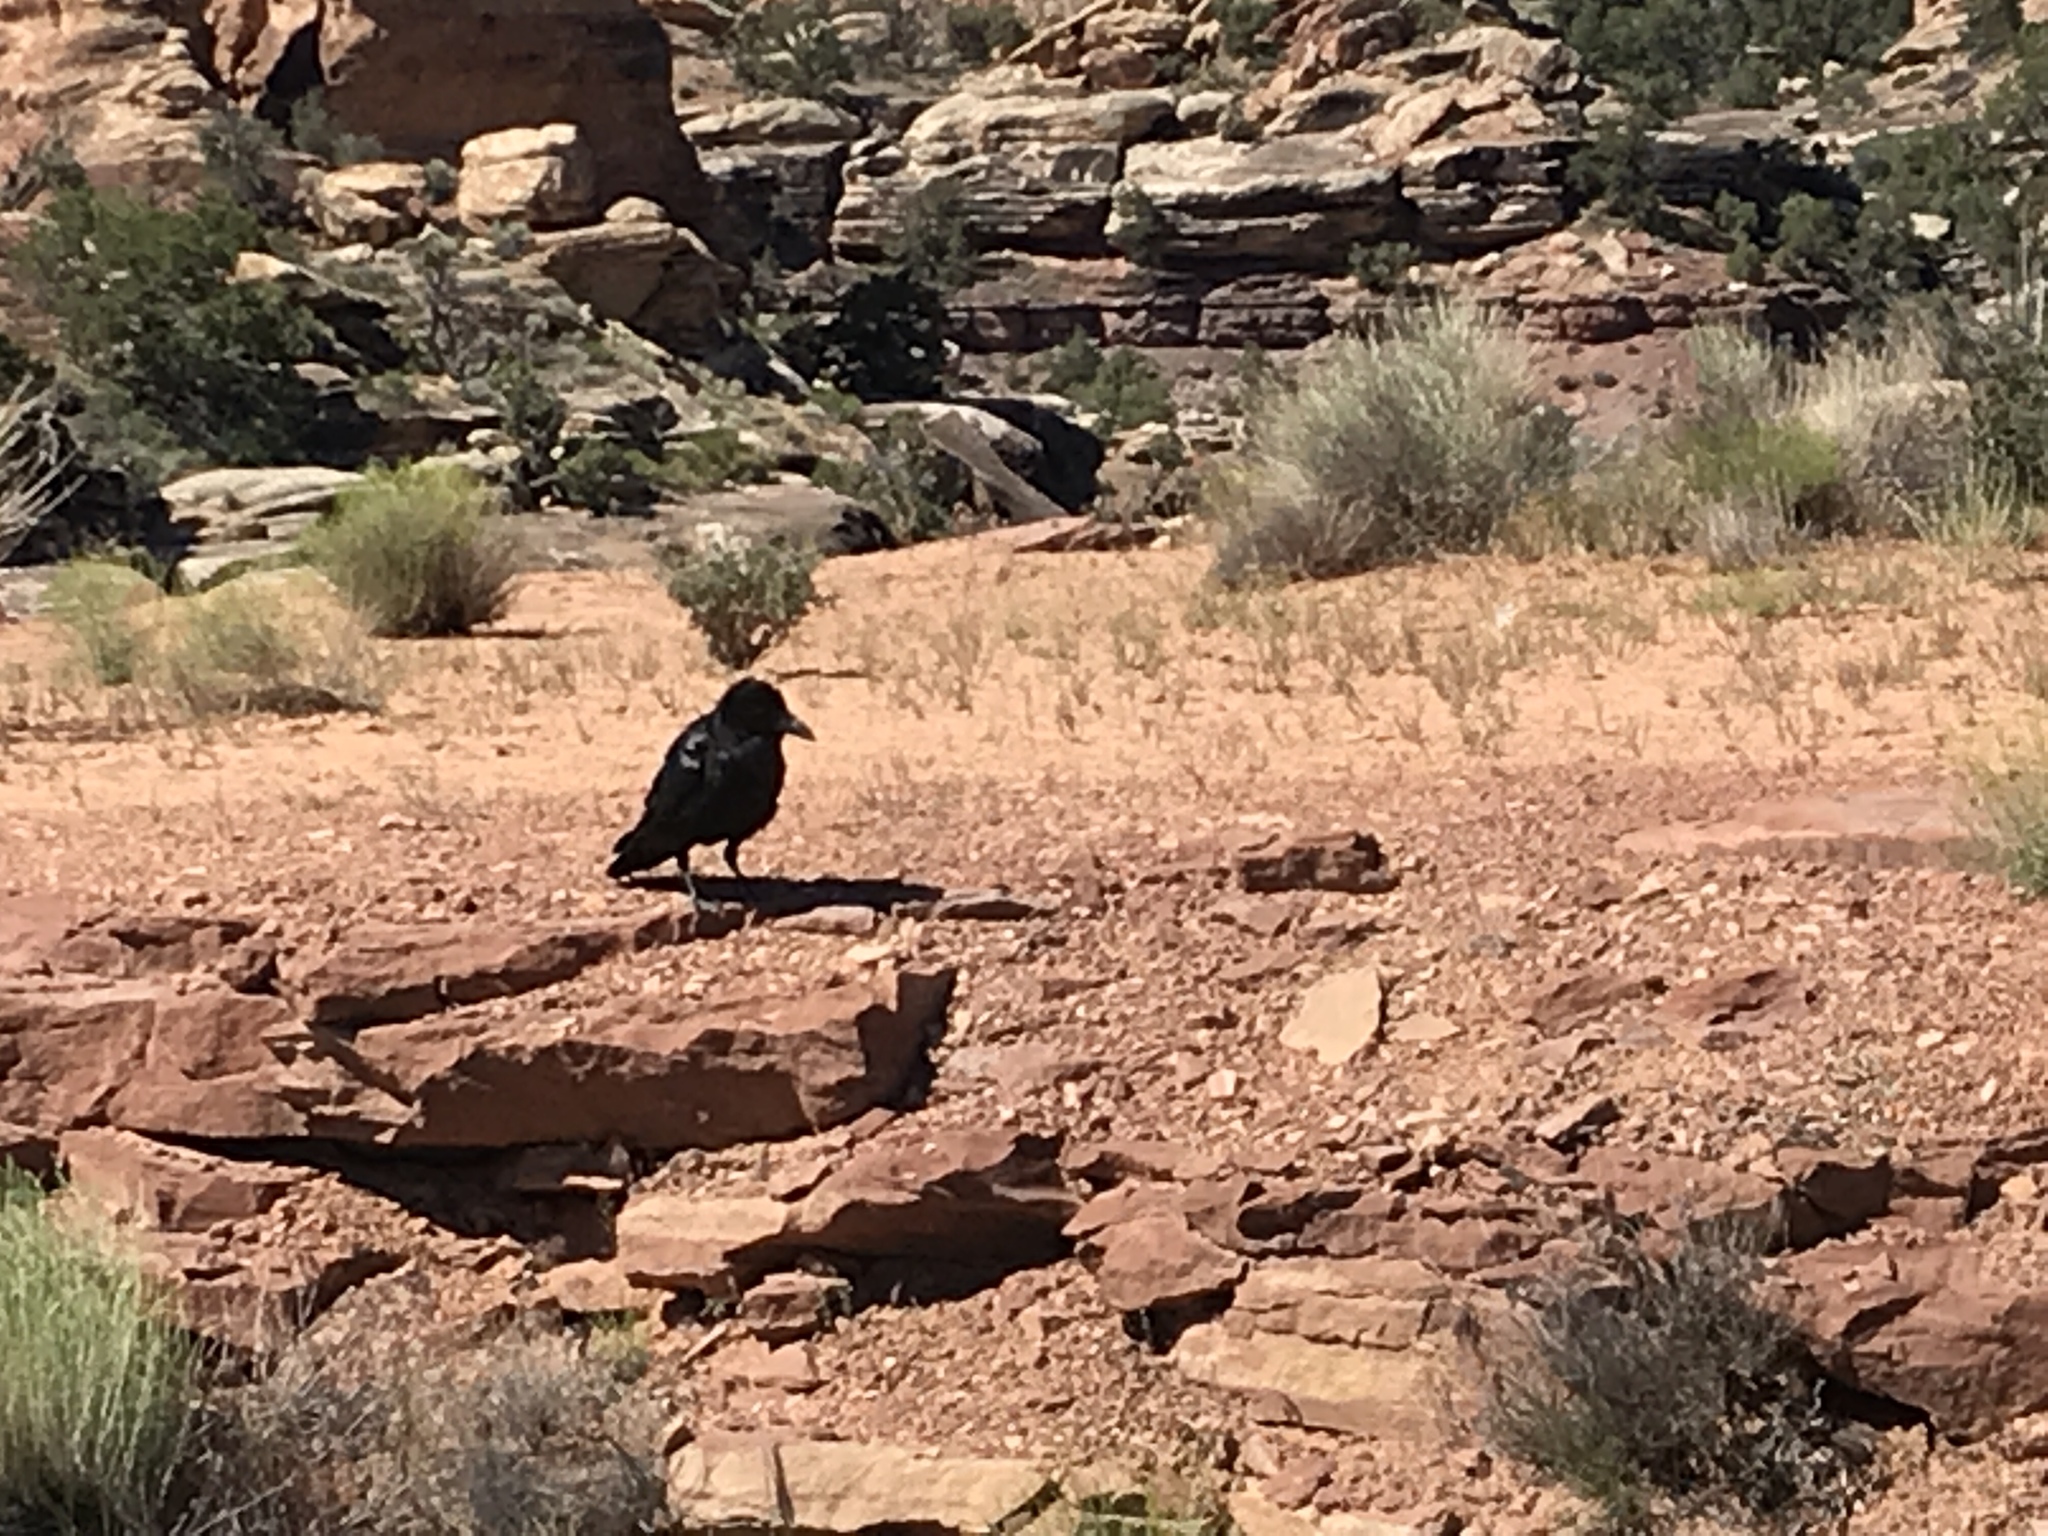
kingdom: Animalia
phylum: Chordata
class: Aves
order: Passeriformes
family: Corvidae
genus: Corvus
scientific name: Corvus corax
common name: Common raven
